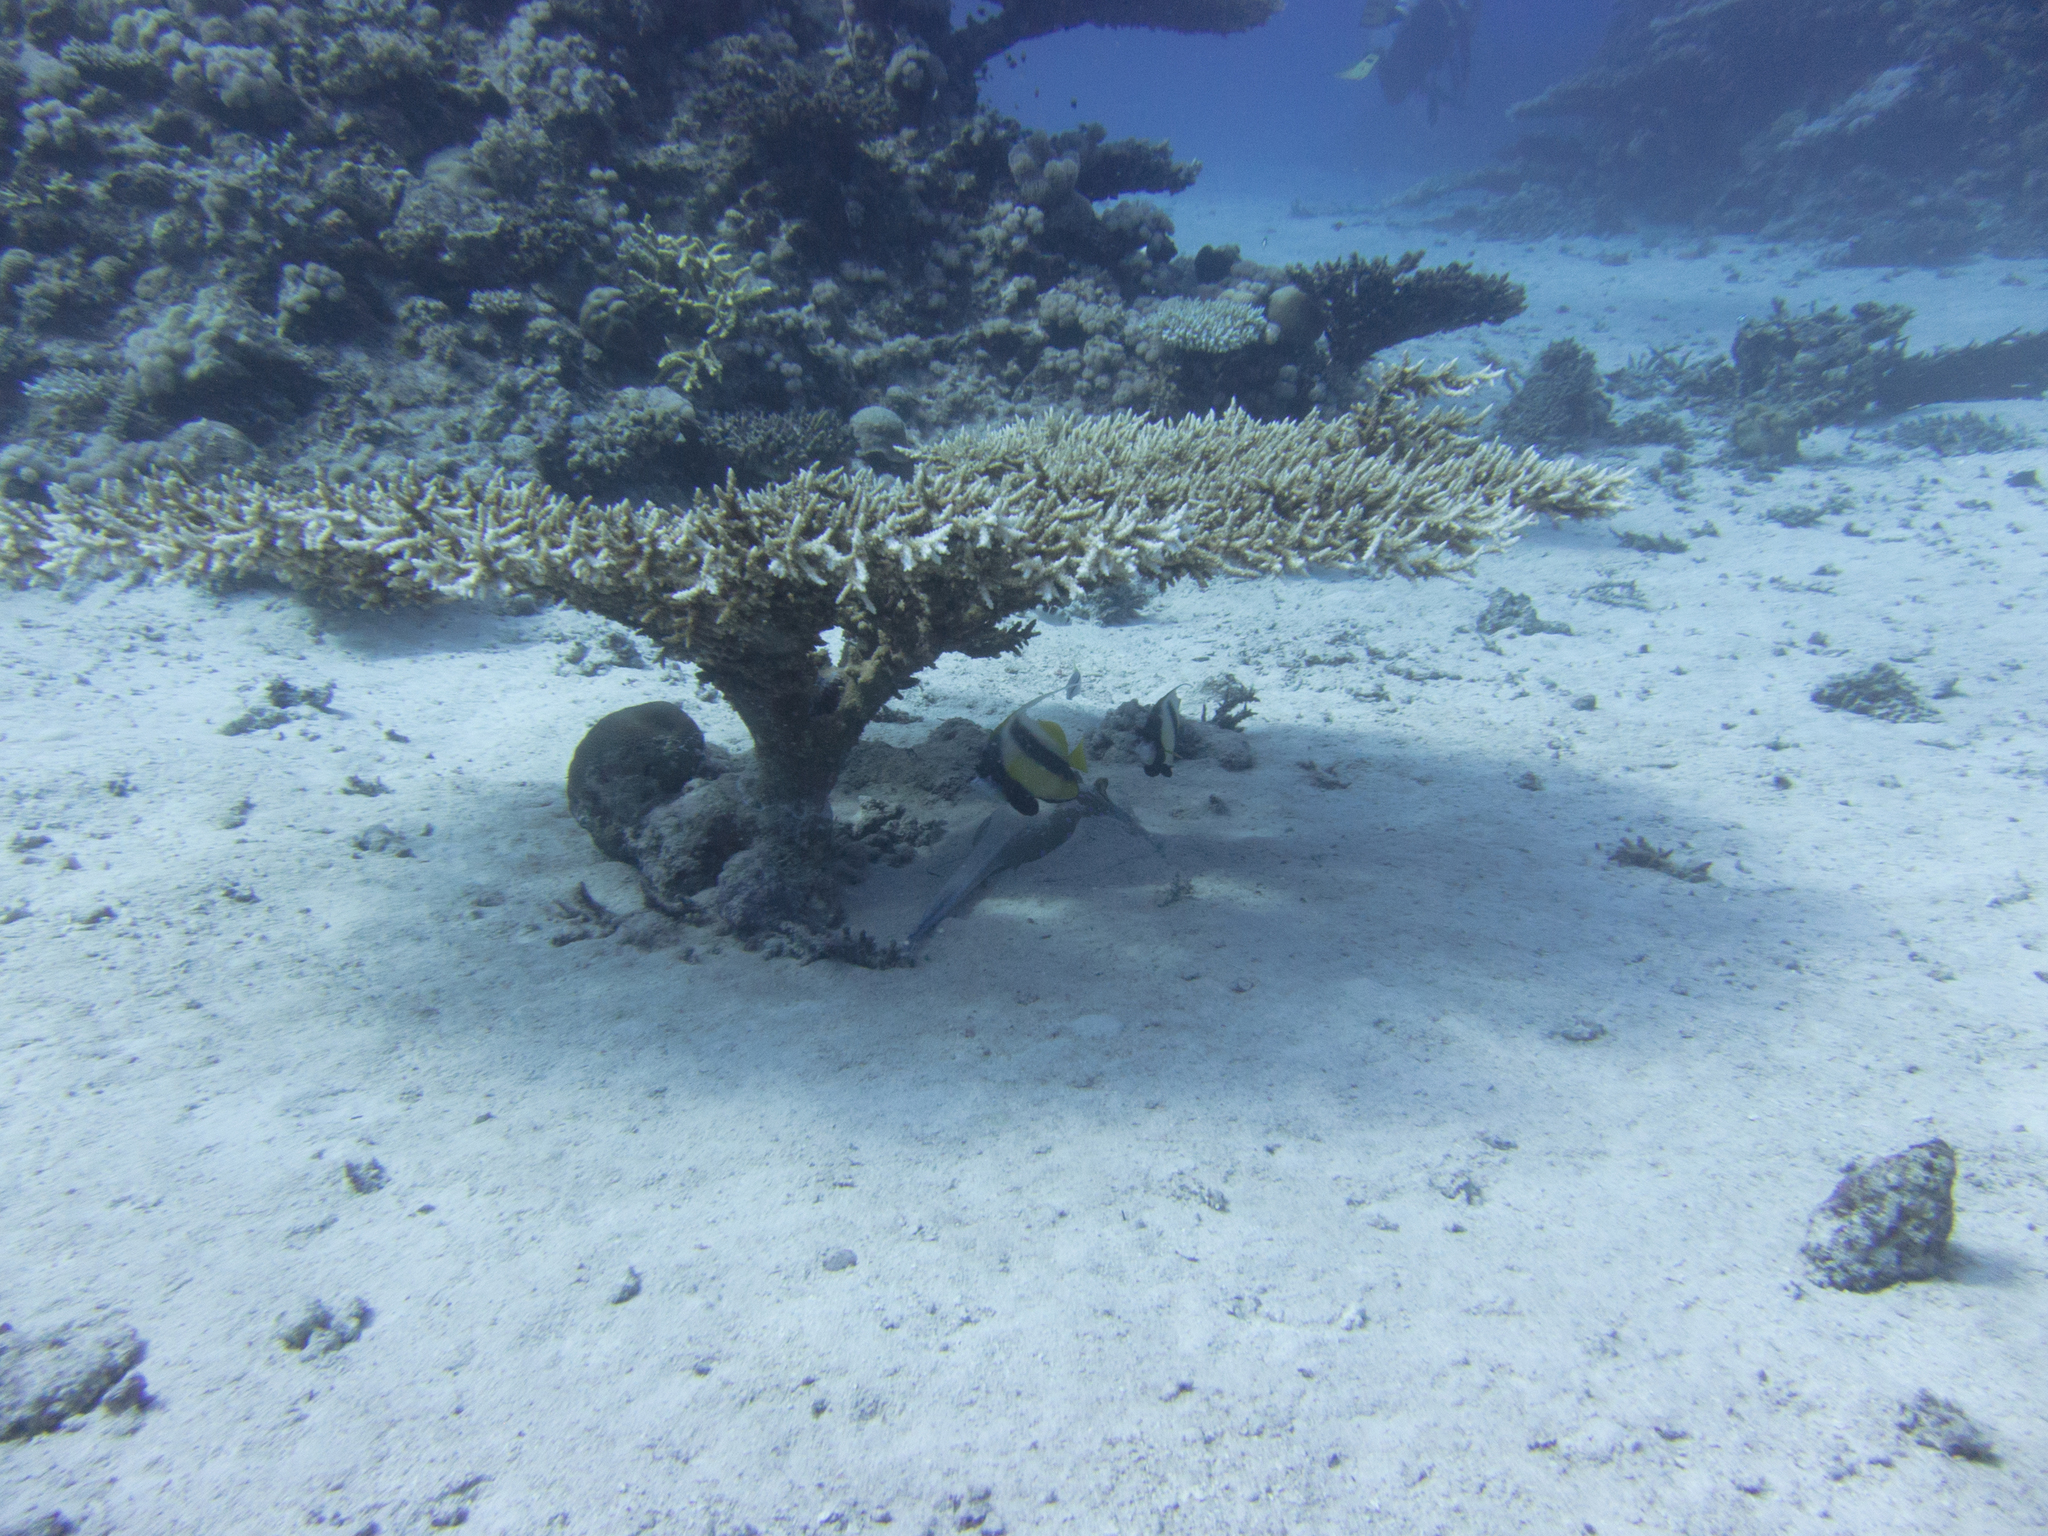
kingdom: Animalia
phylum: Chordata
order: Perciformes
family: Chaetodontidae
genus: Heniochus
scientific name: Heniochus intermedius
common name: Red sea bannerfish
